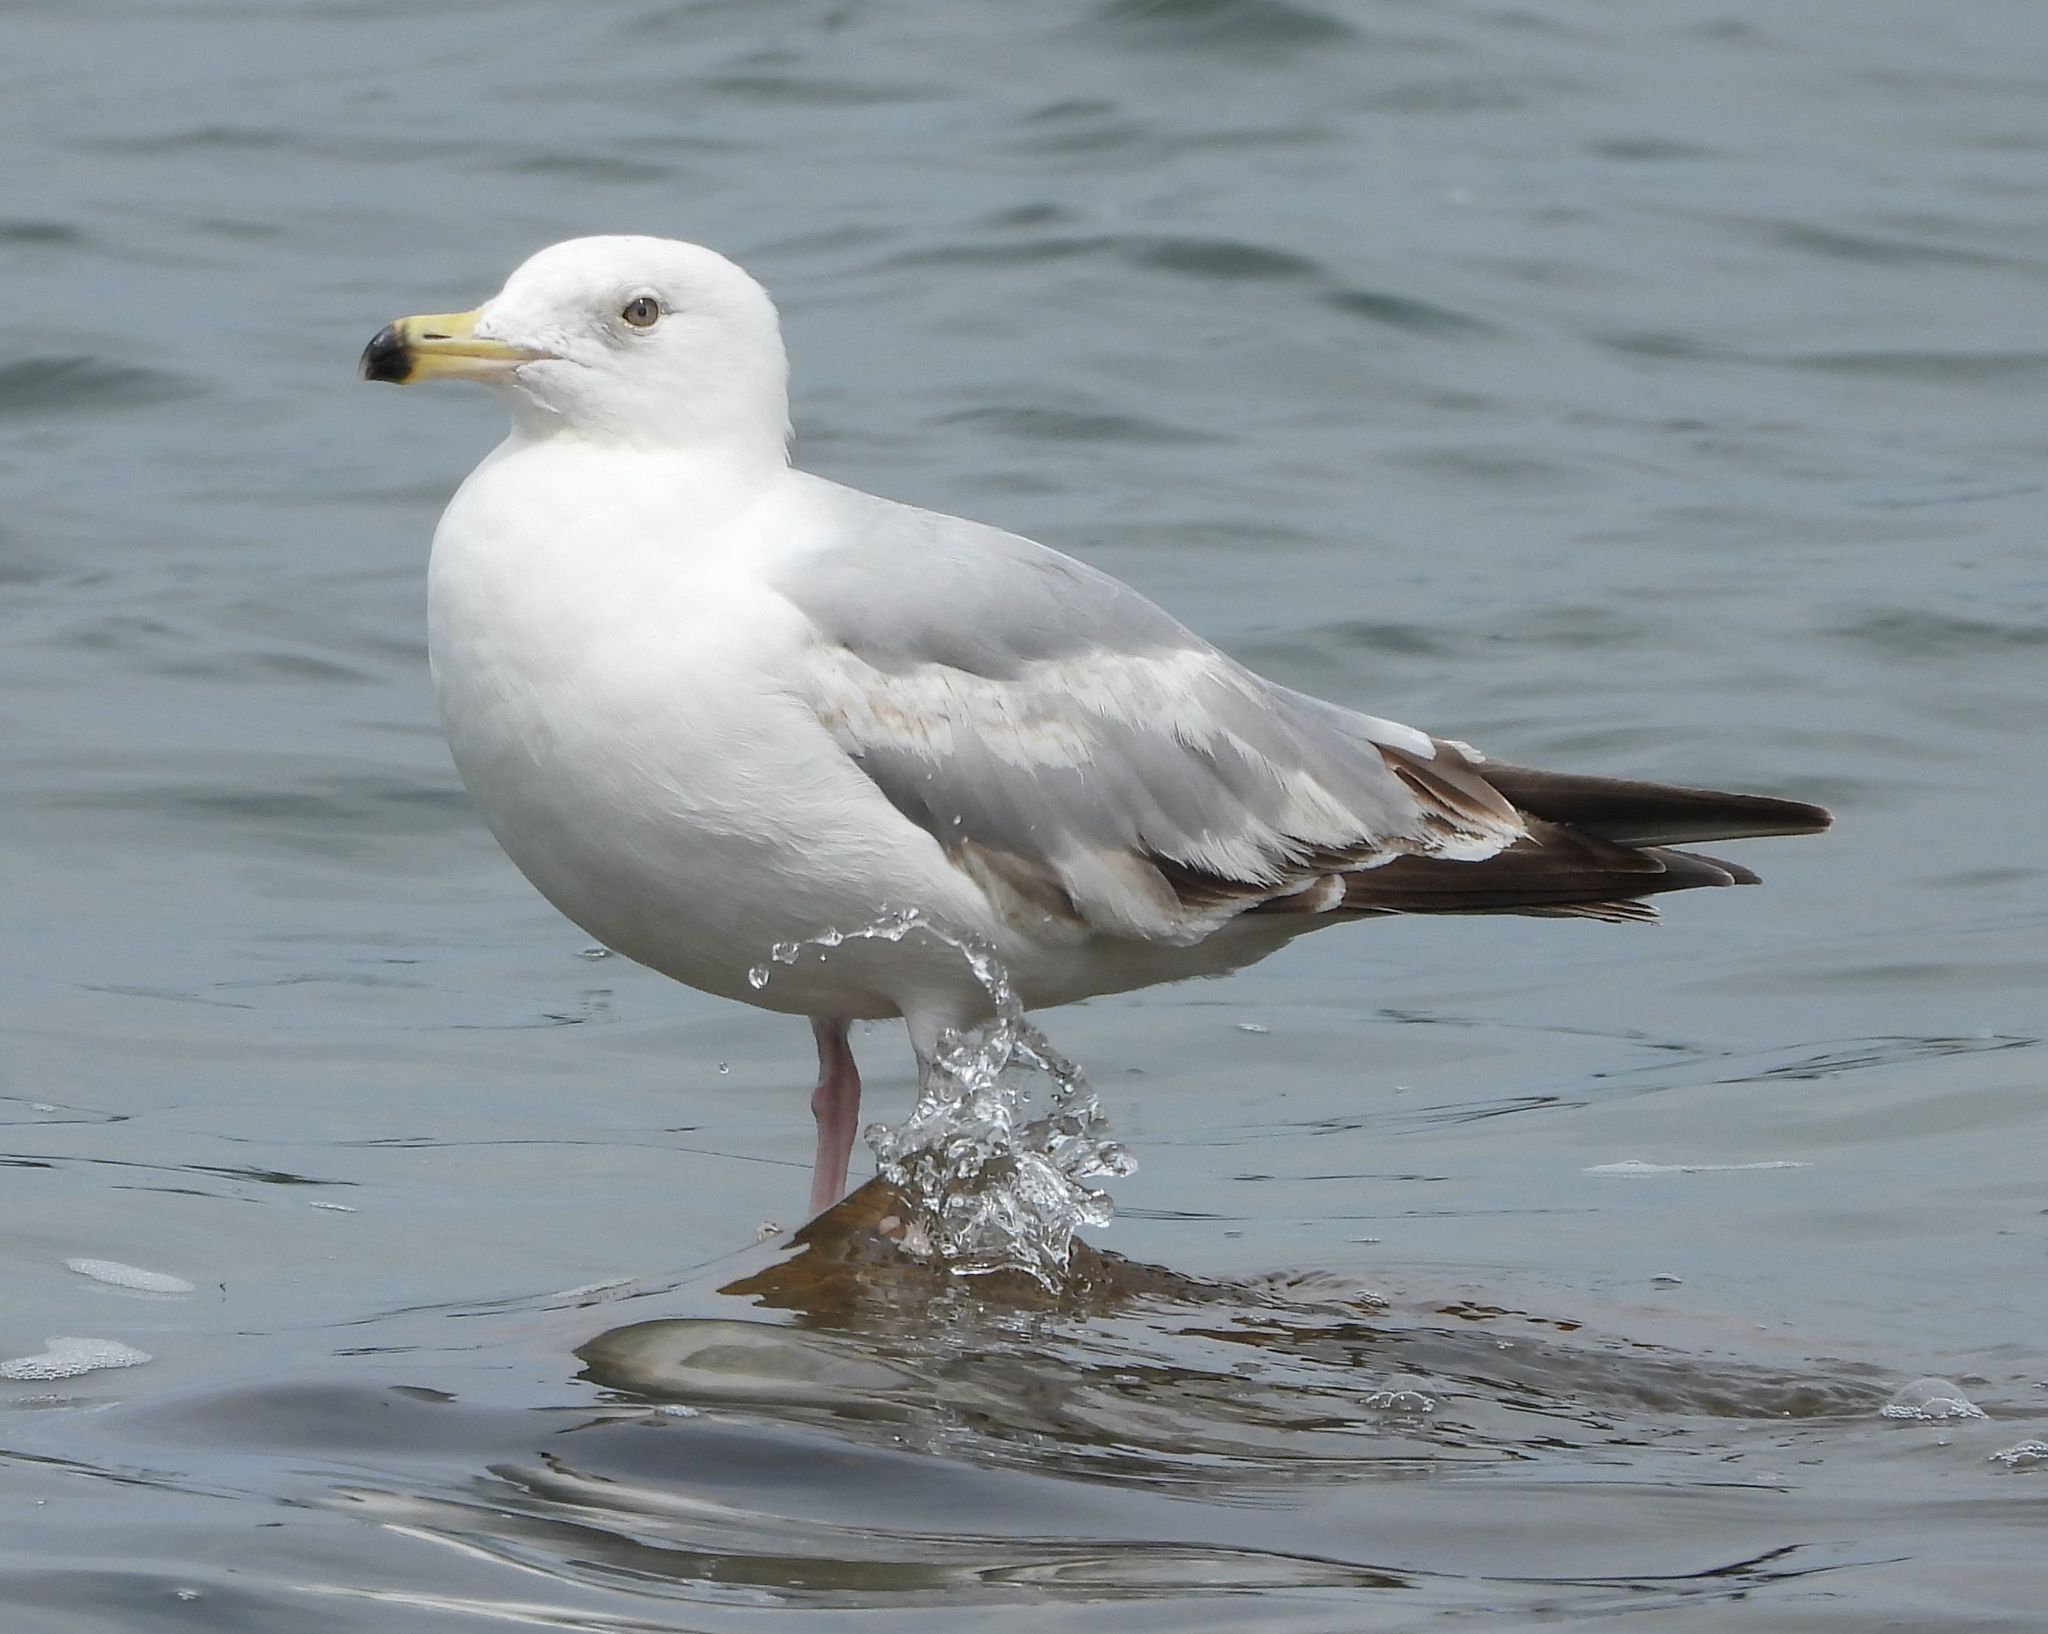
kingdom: Animalia
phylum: Chordata
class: Aves
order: Charadriiformes
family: Laridae
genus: Larus
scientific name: Larus argentatus
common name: Herring gull
